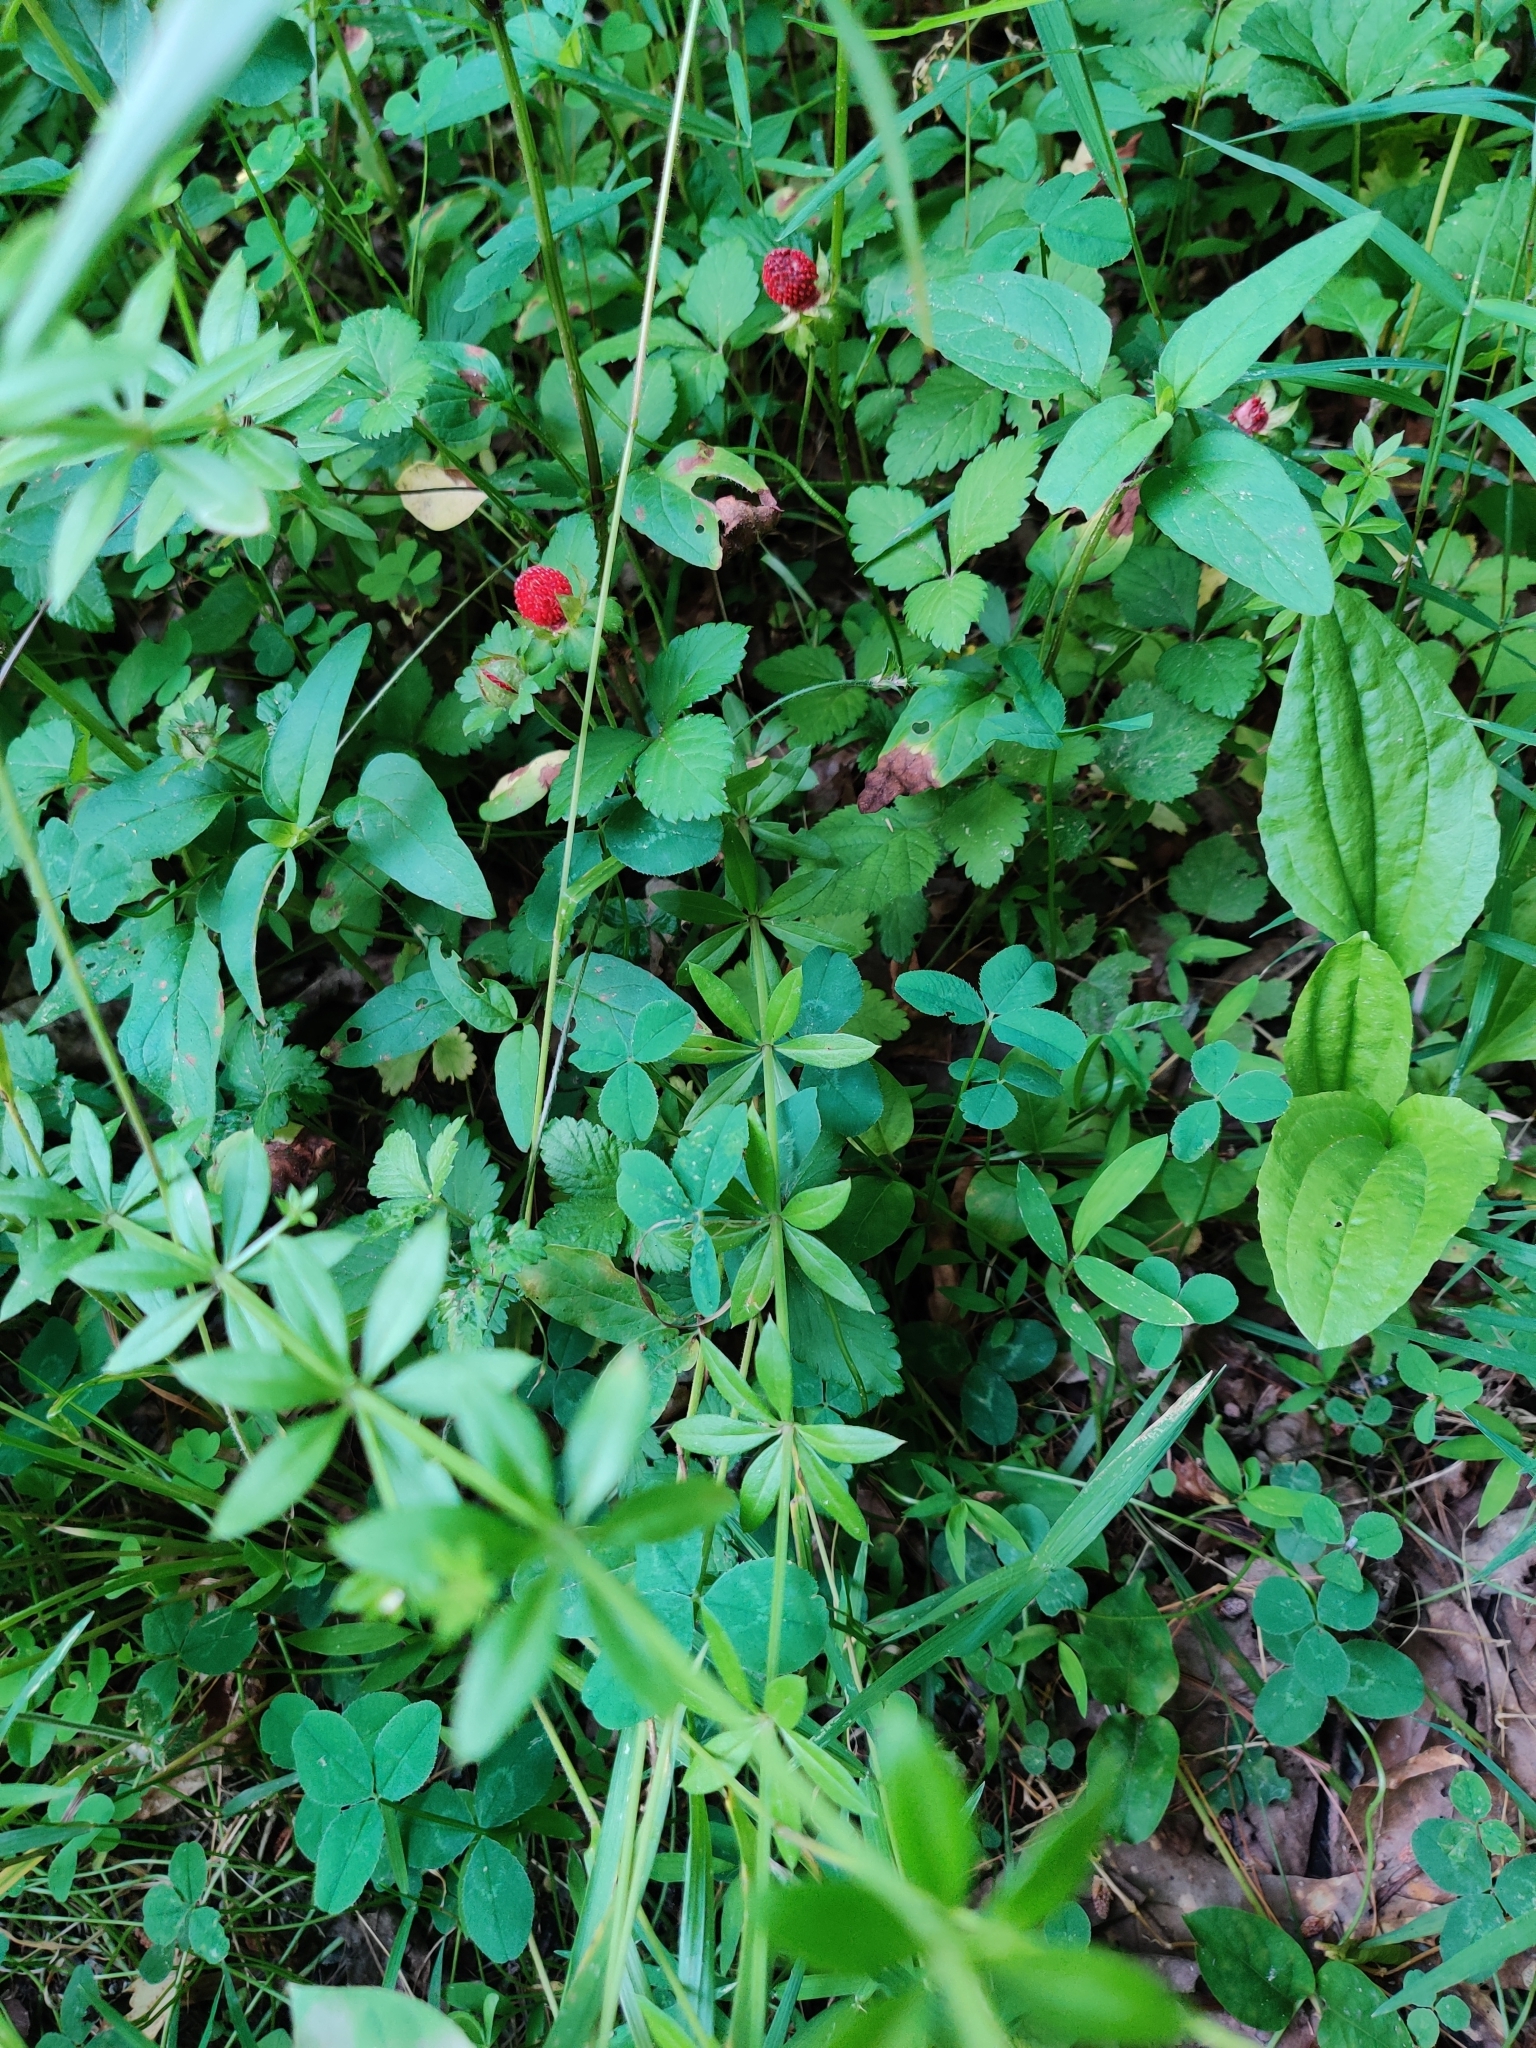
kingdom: Plantae
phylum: Tracheophyta
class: Magnoliopsida
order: Rosales
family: Rosaceae
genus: Potentilla
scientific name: Potentilla indica
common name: Yellow-flowered strawberry
